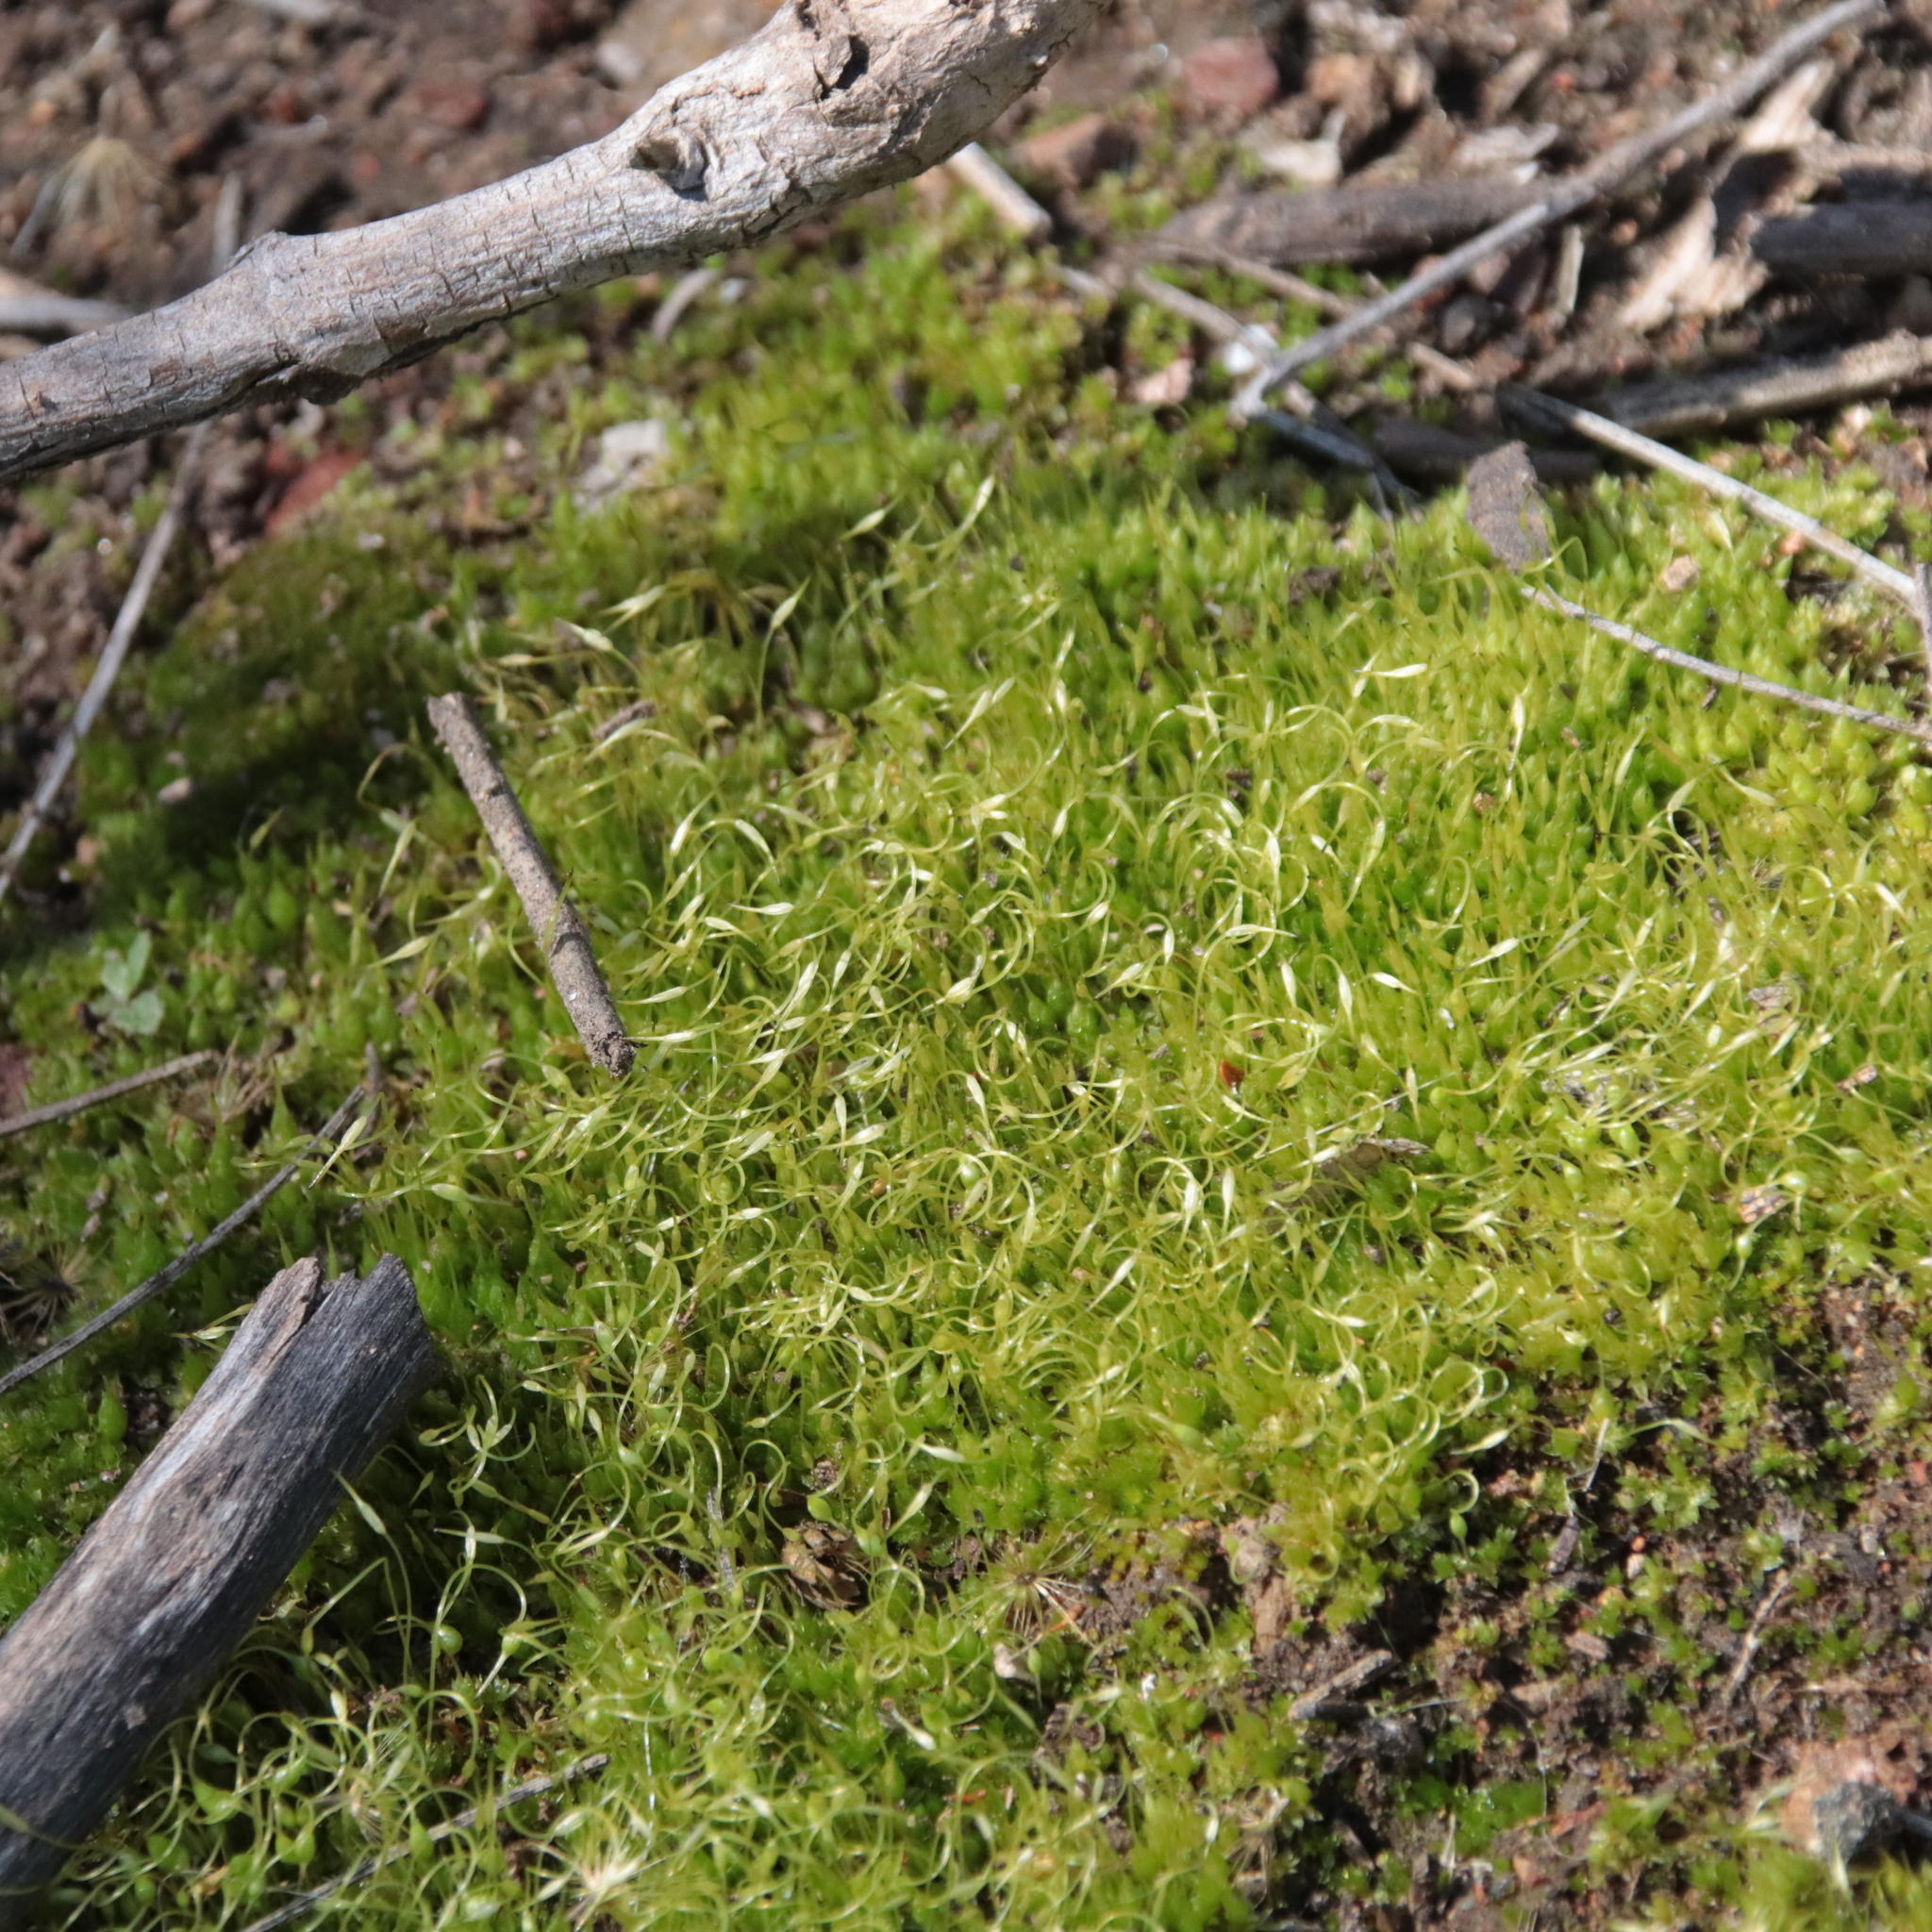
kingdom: Plantae
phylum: Bryophyta
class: Bryopsida
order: Funariales
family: Funariaceae
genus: Funaria
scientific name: Funaria hygrometrica
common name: Common cord moss
